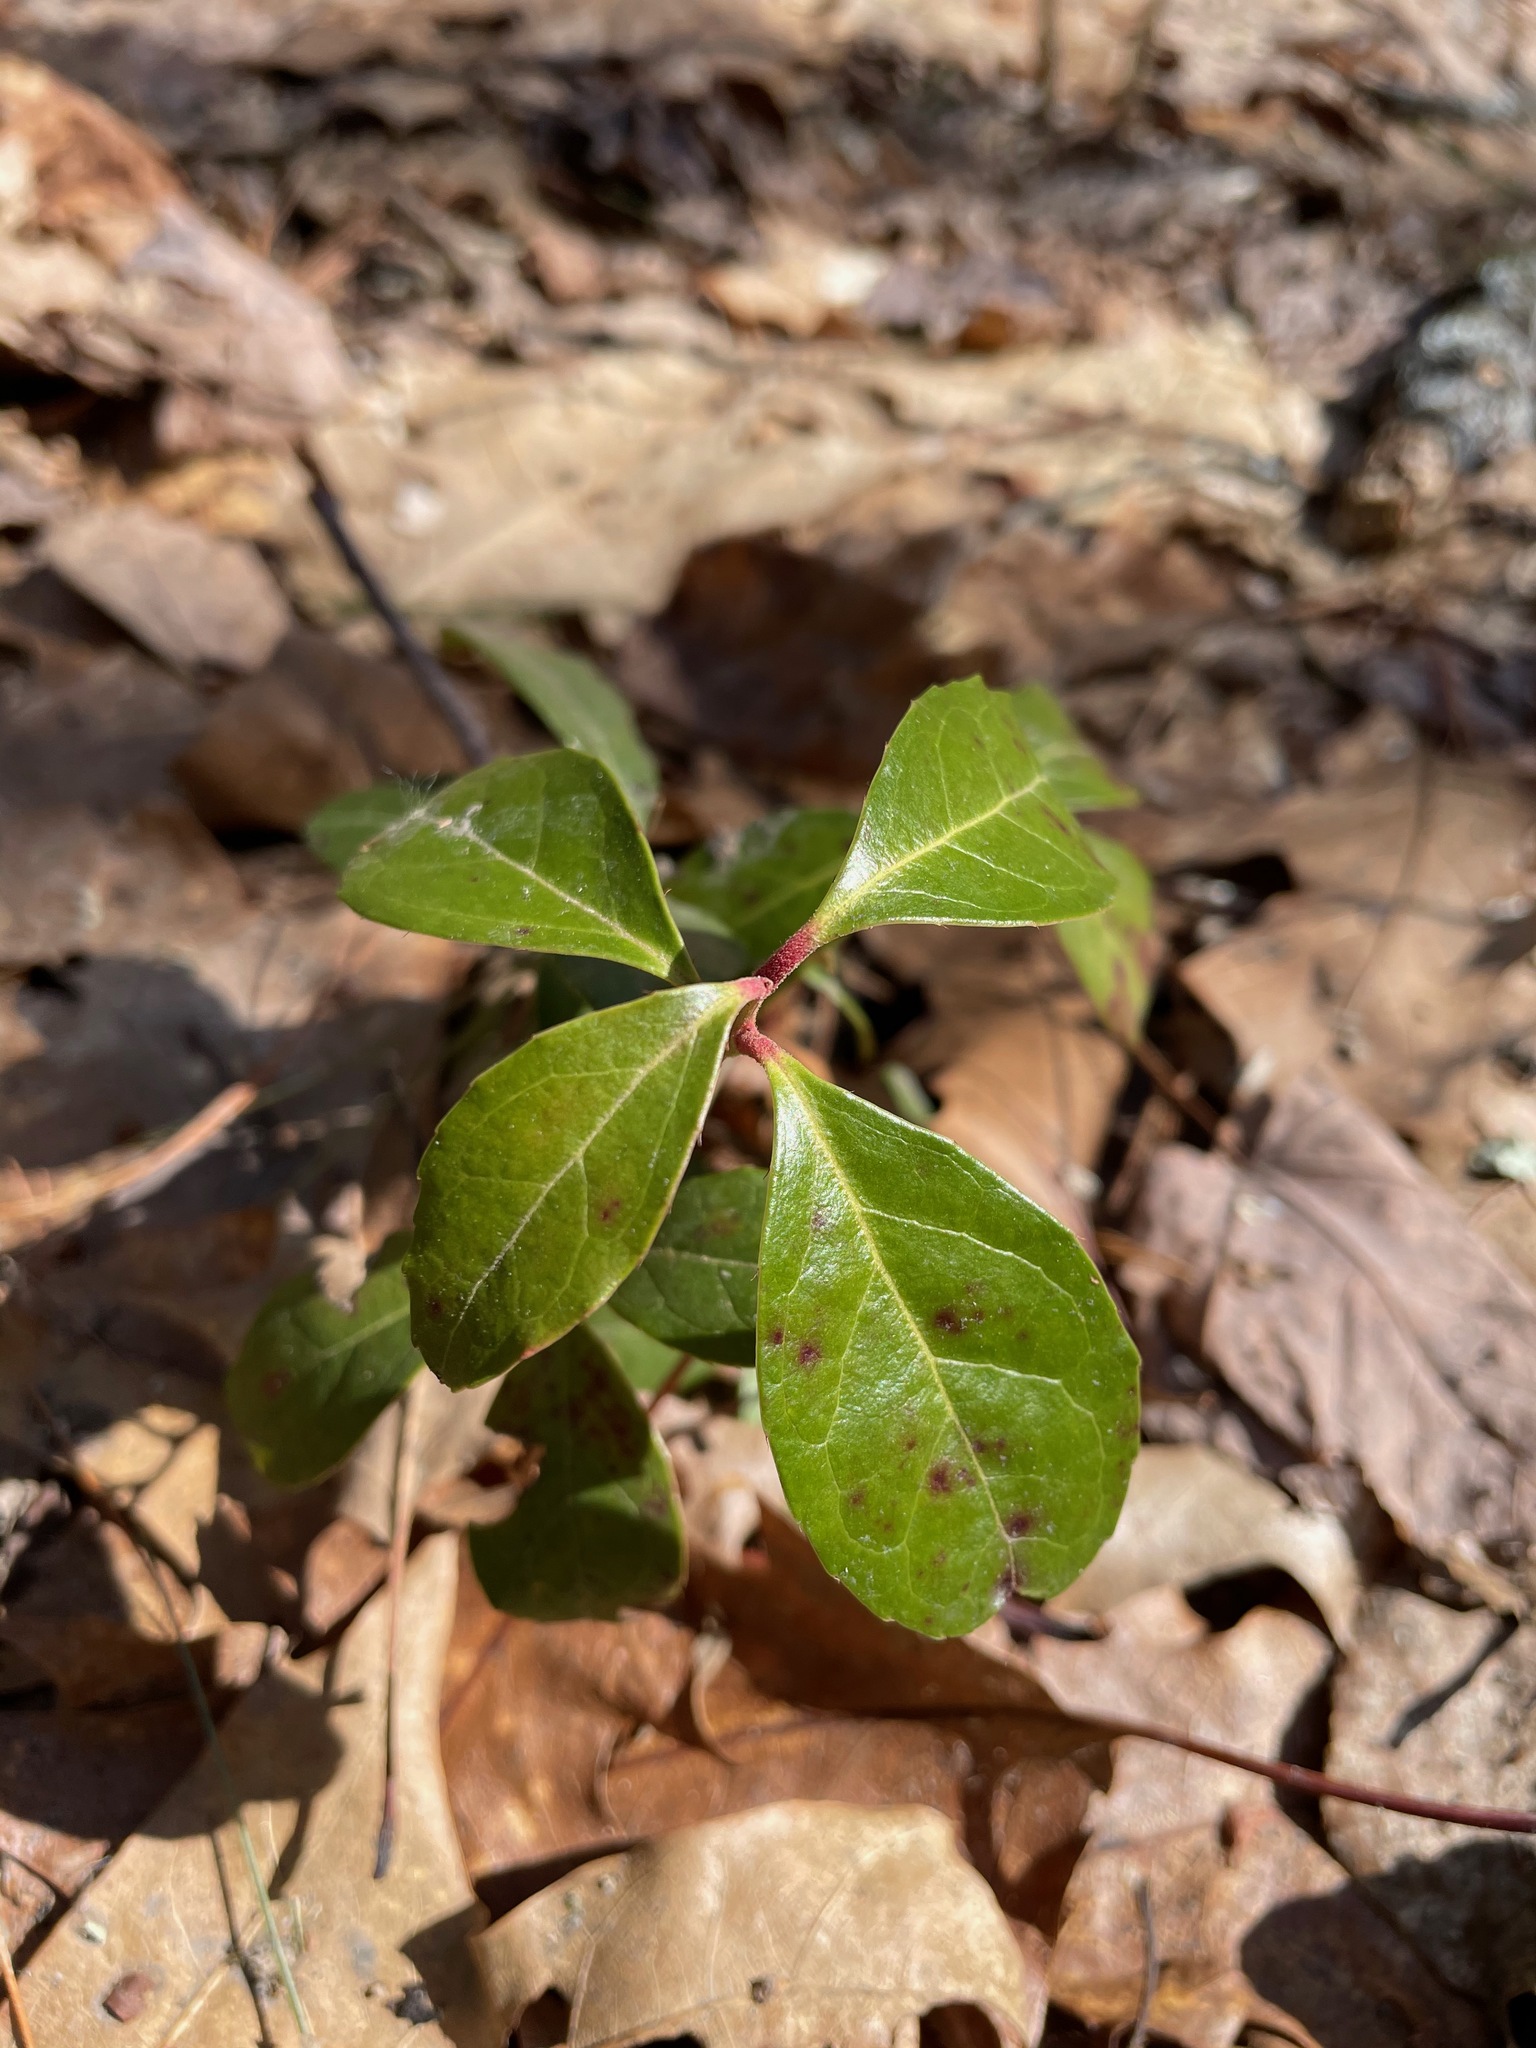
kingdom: Plantae
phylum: Tracheophyta
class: Magnoliopsida
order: Ericales
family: Ericaceae
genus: Gaultheria
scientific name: Gaultheria procumbens
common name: Checkerberry
